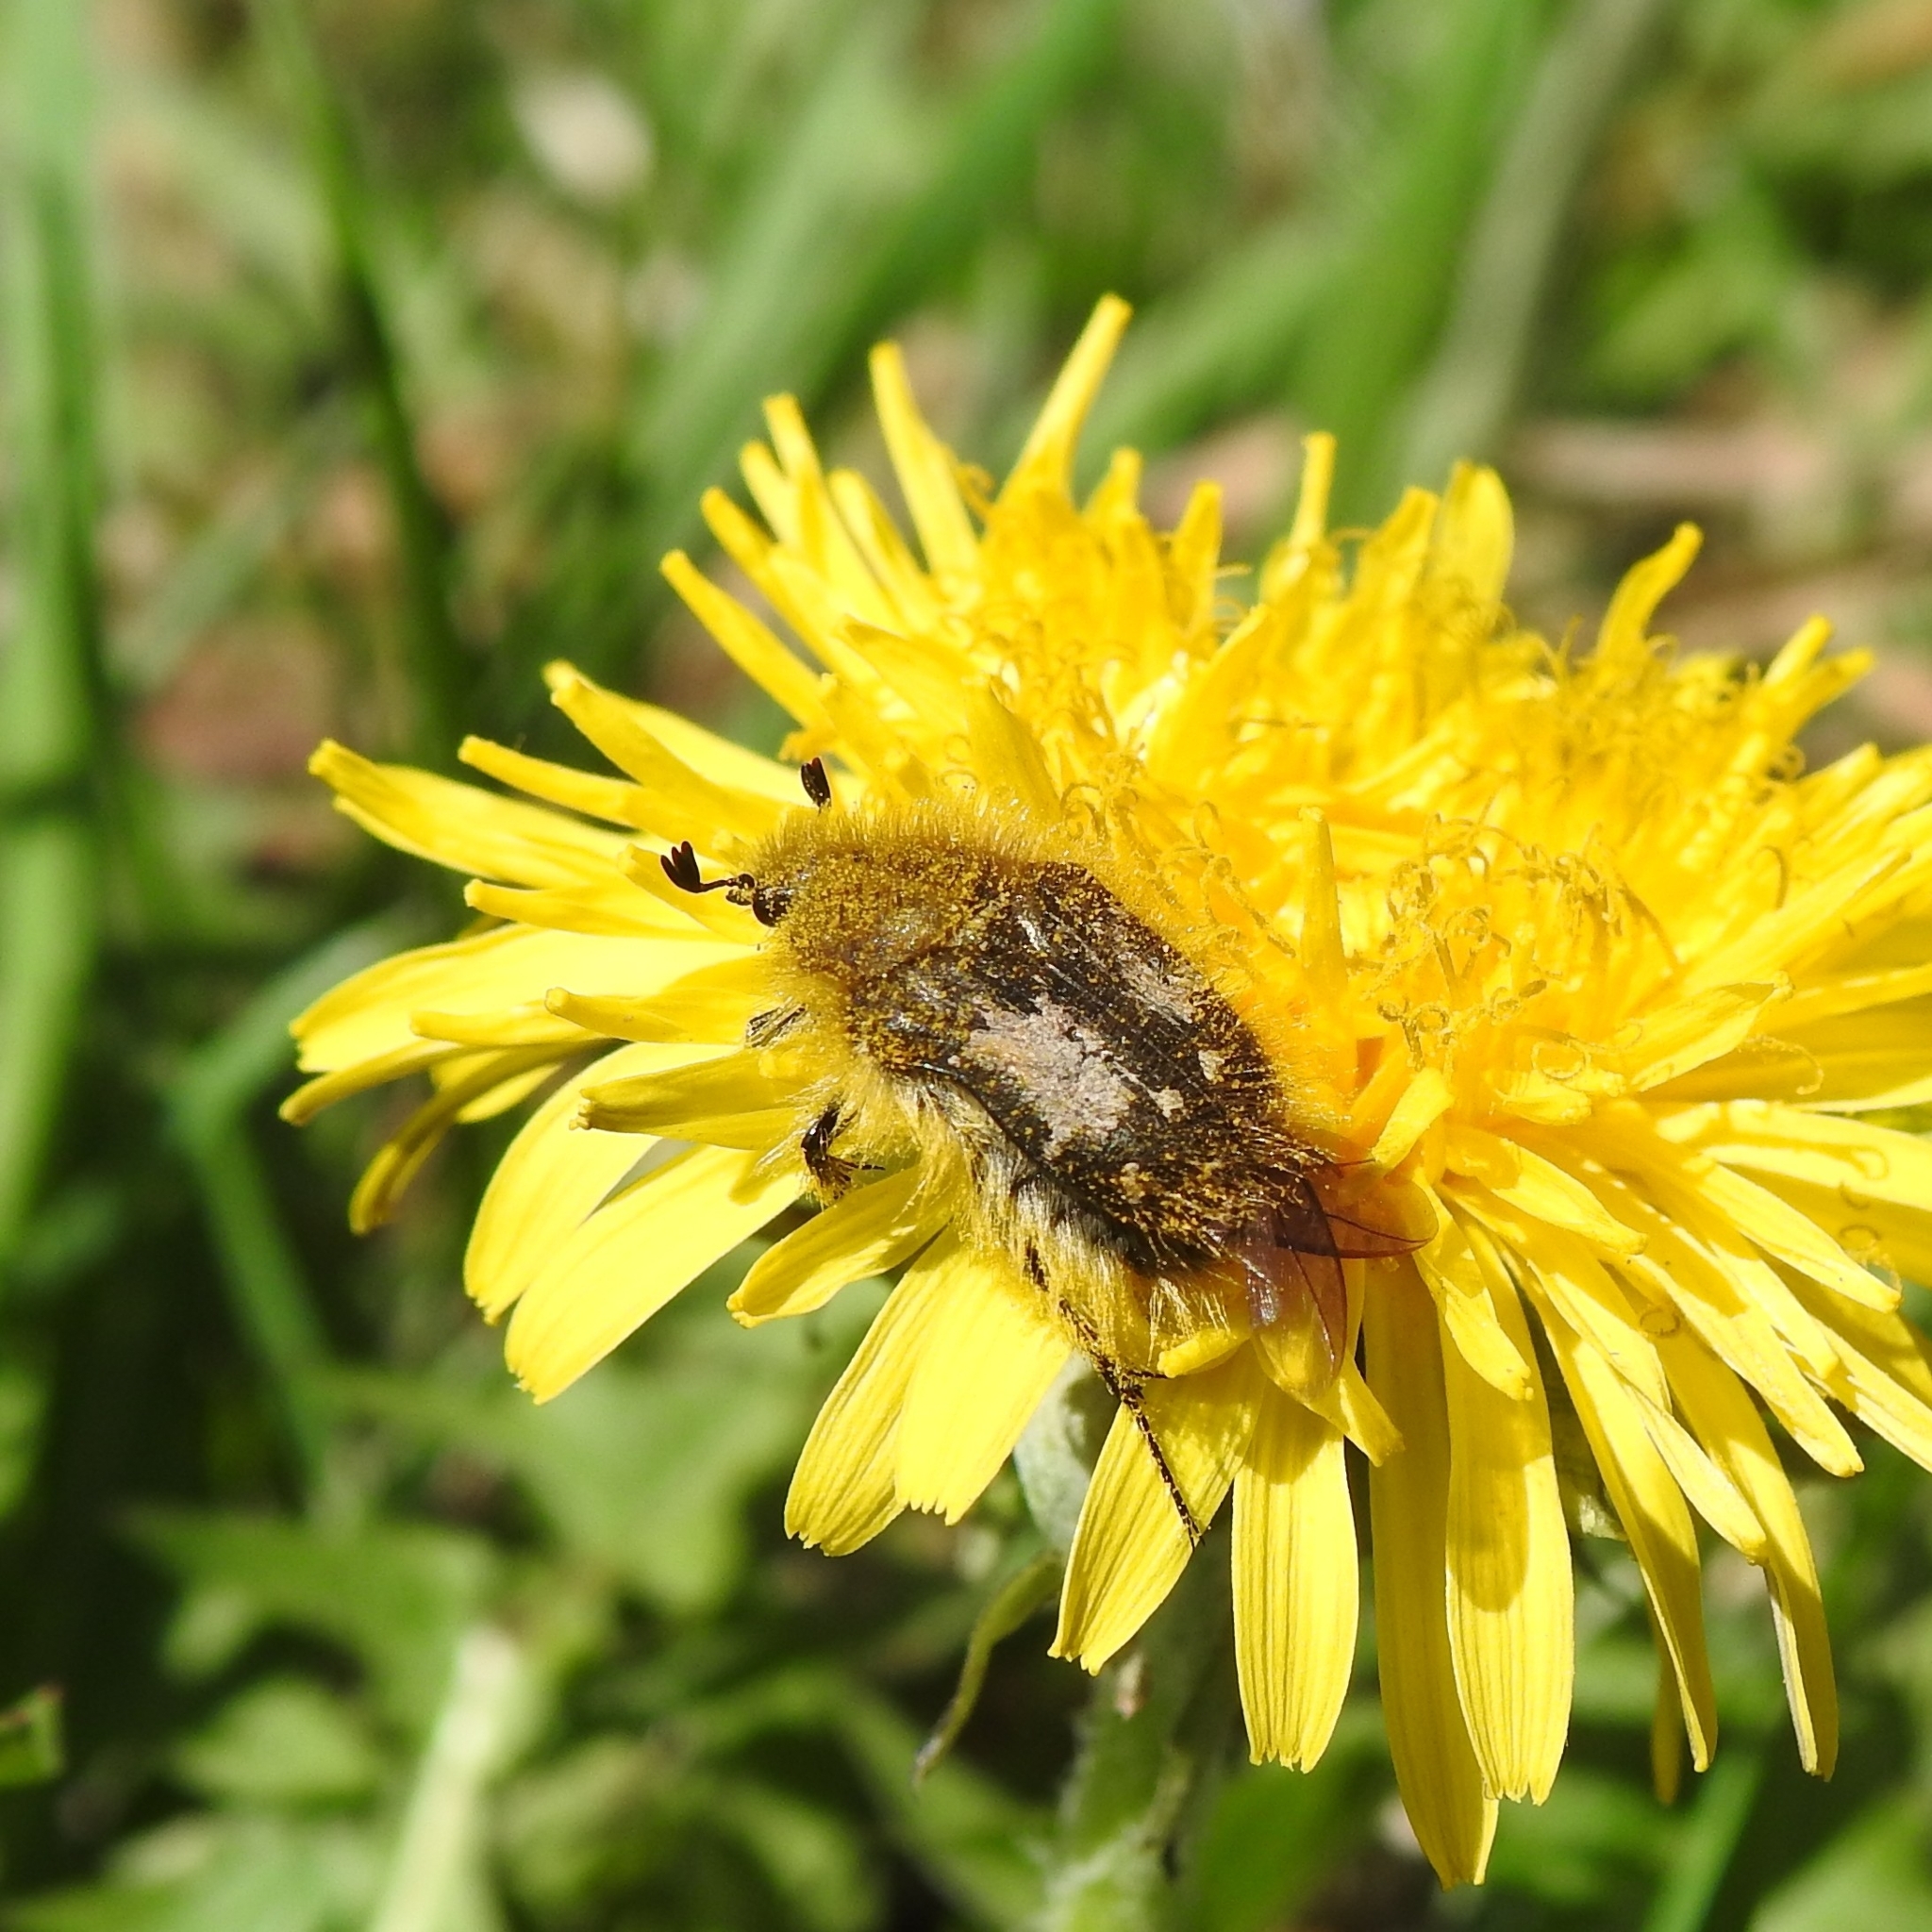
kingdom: Animalia
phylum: Arthropoda
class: Insecta
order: Coleoptera
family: Scarabaeidae
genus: Tropinota
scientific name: Tropinota hirta
